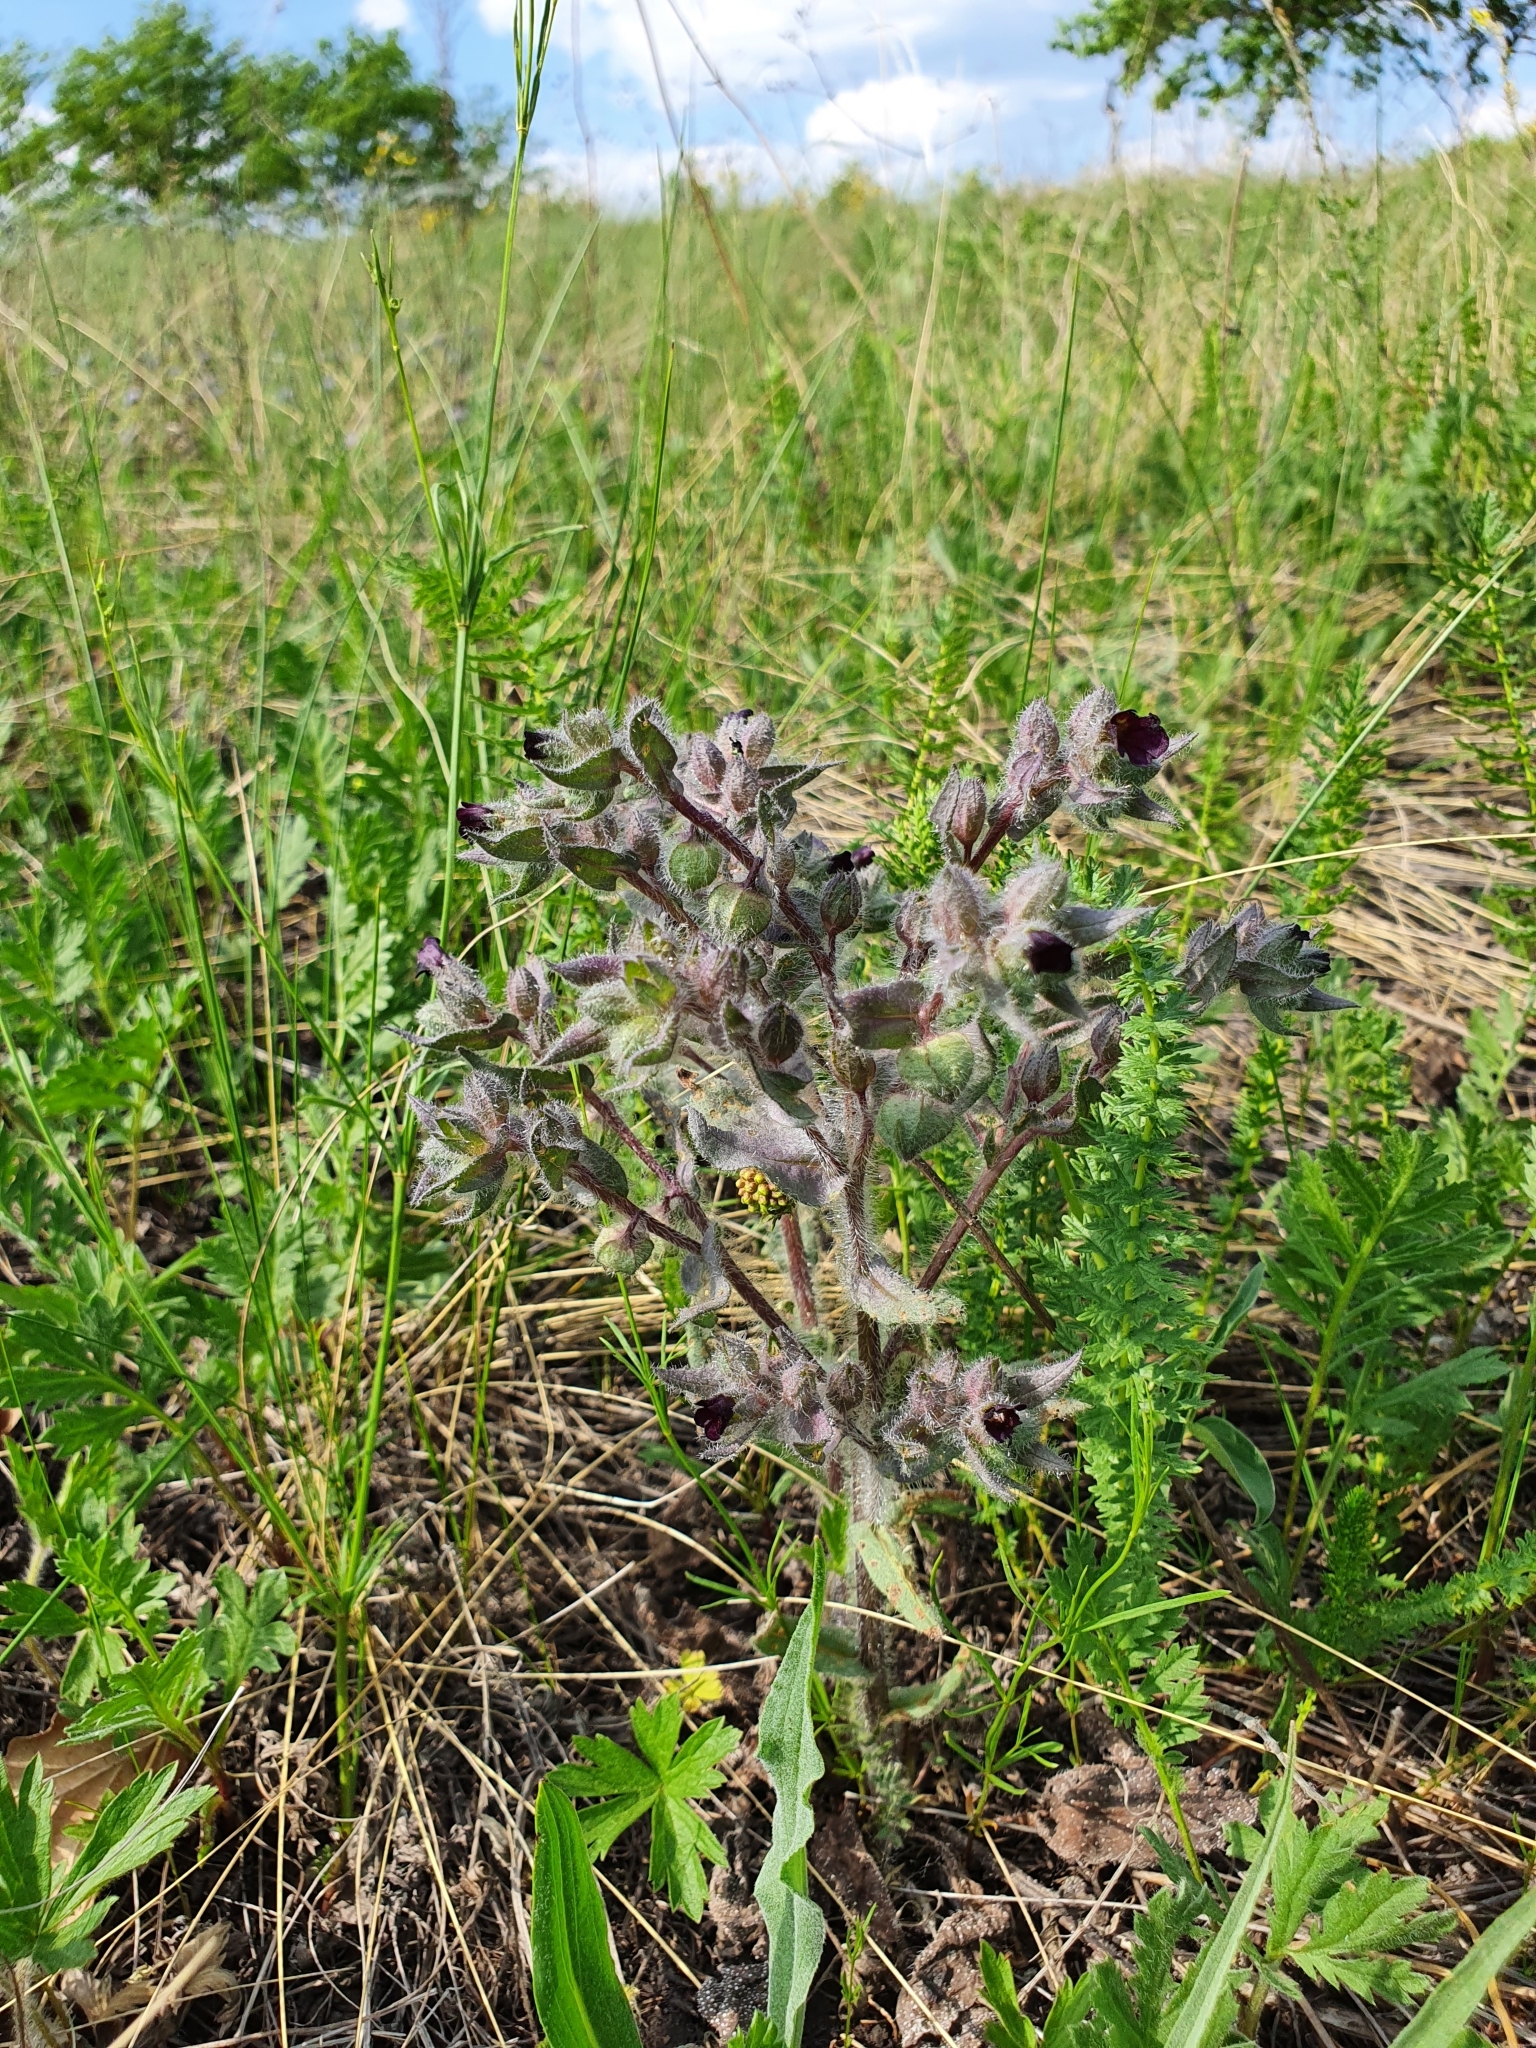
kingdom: Plantae
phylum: Tracheophyta
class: Magnoliopsida
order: Boraginales
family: Boraginaceae
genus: Nonea
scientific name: Nonea pulla
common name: Brown nonea
